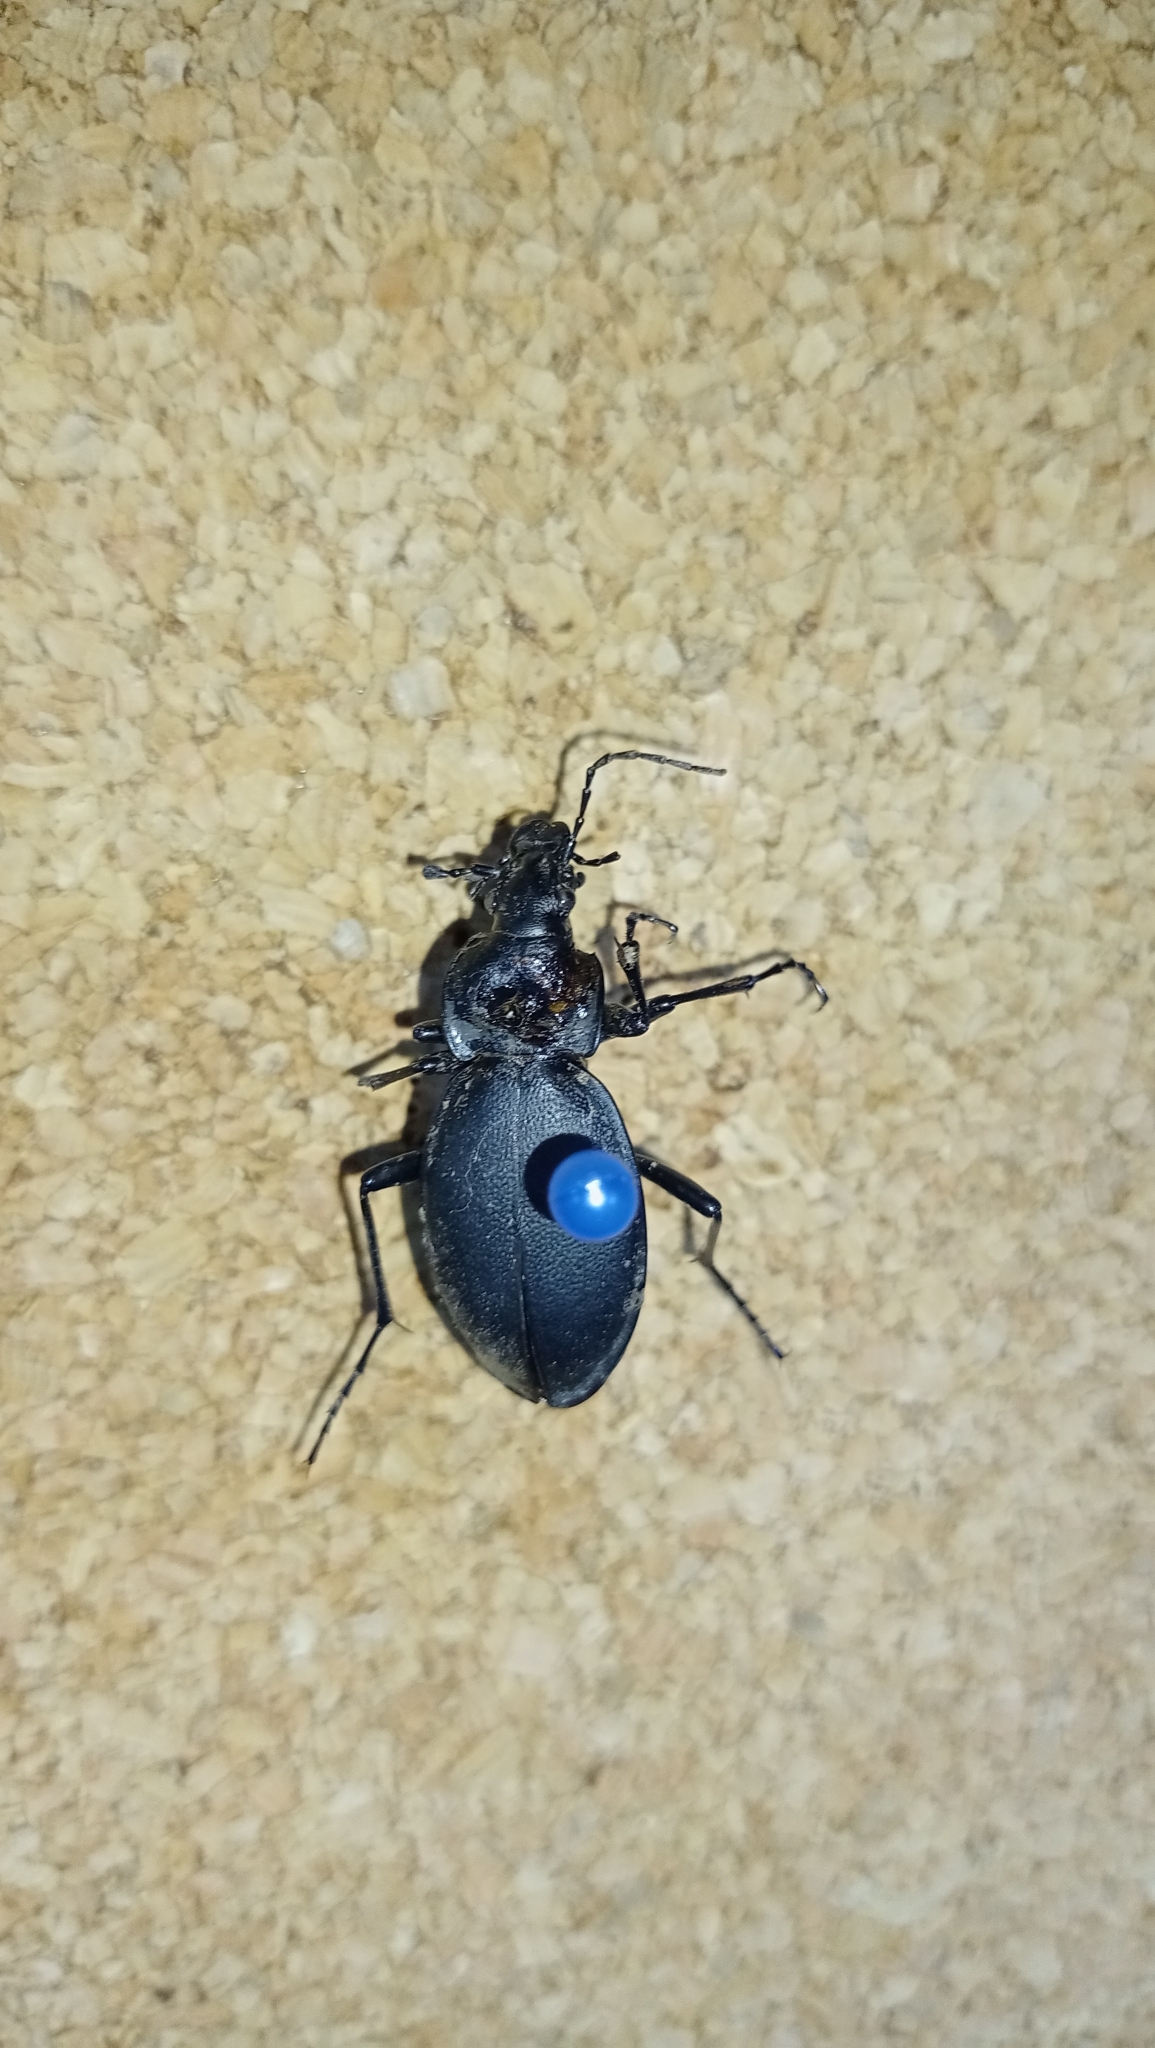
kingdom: Animalia
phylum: Arthropoda
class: Insecta
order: Coleoptera
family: Carabidae
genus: Carabus
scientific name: Carabus coriaceus
